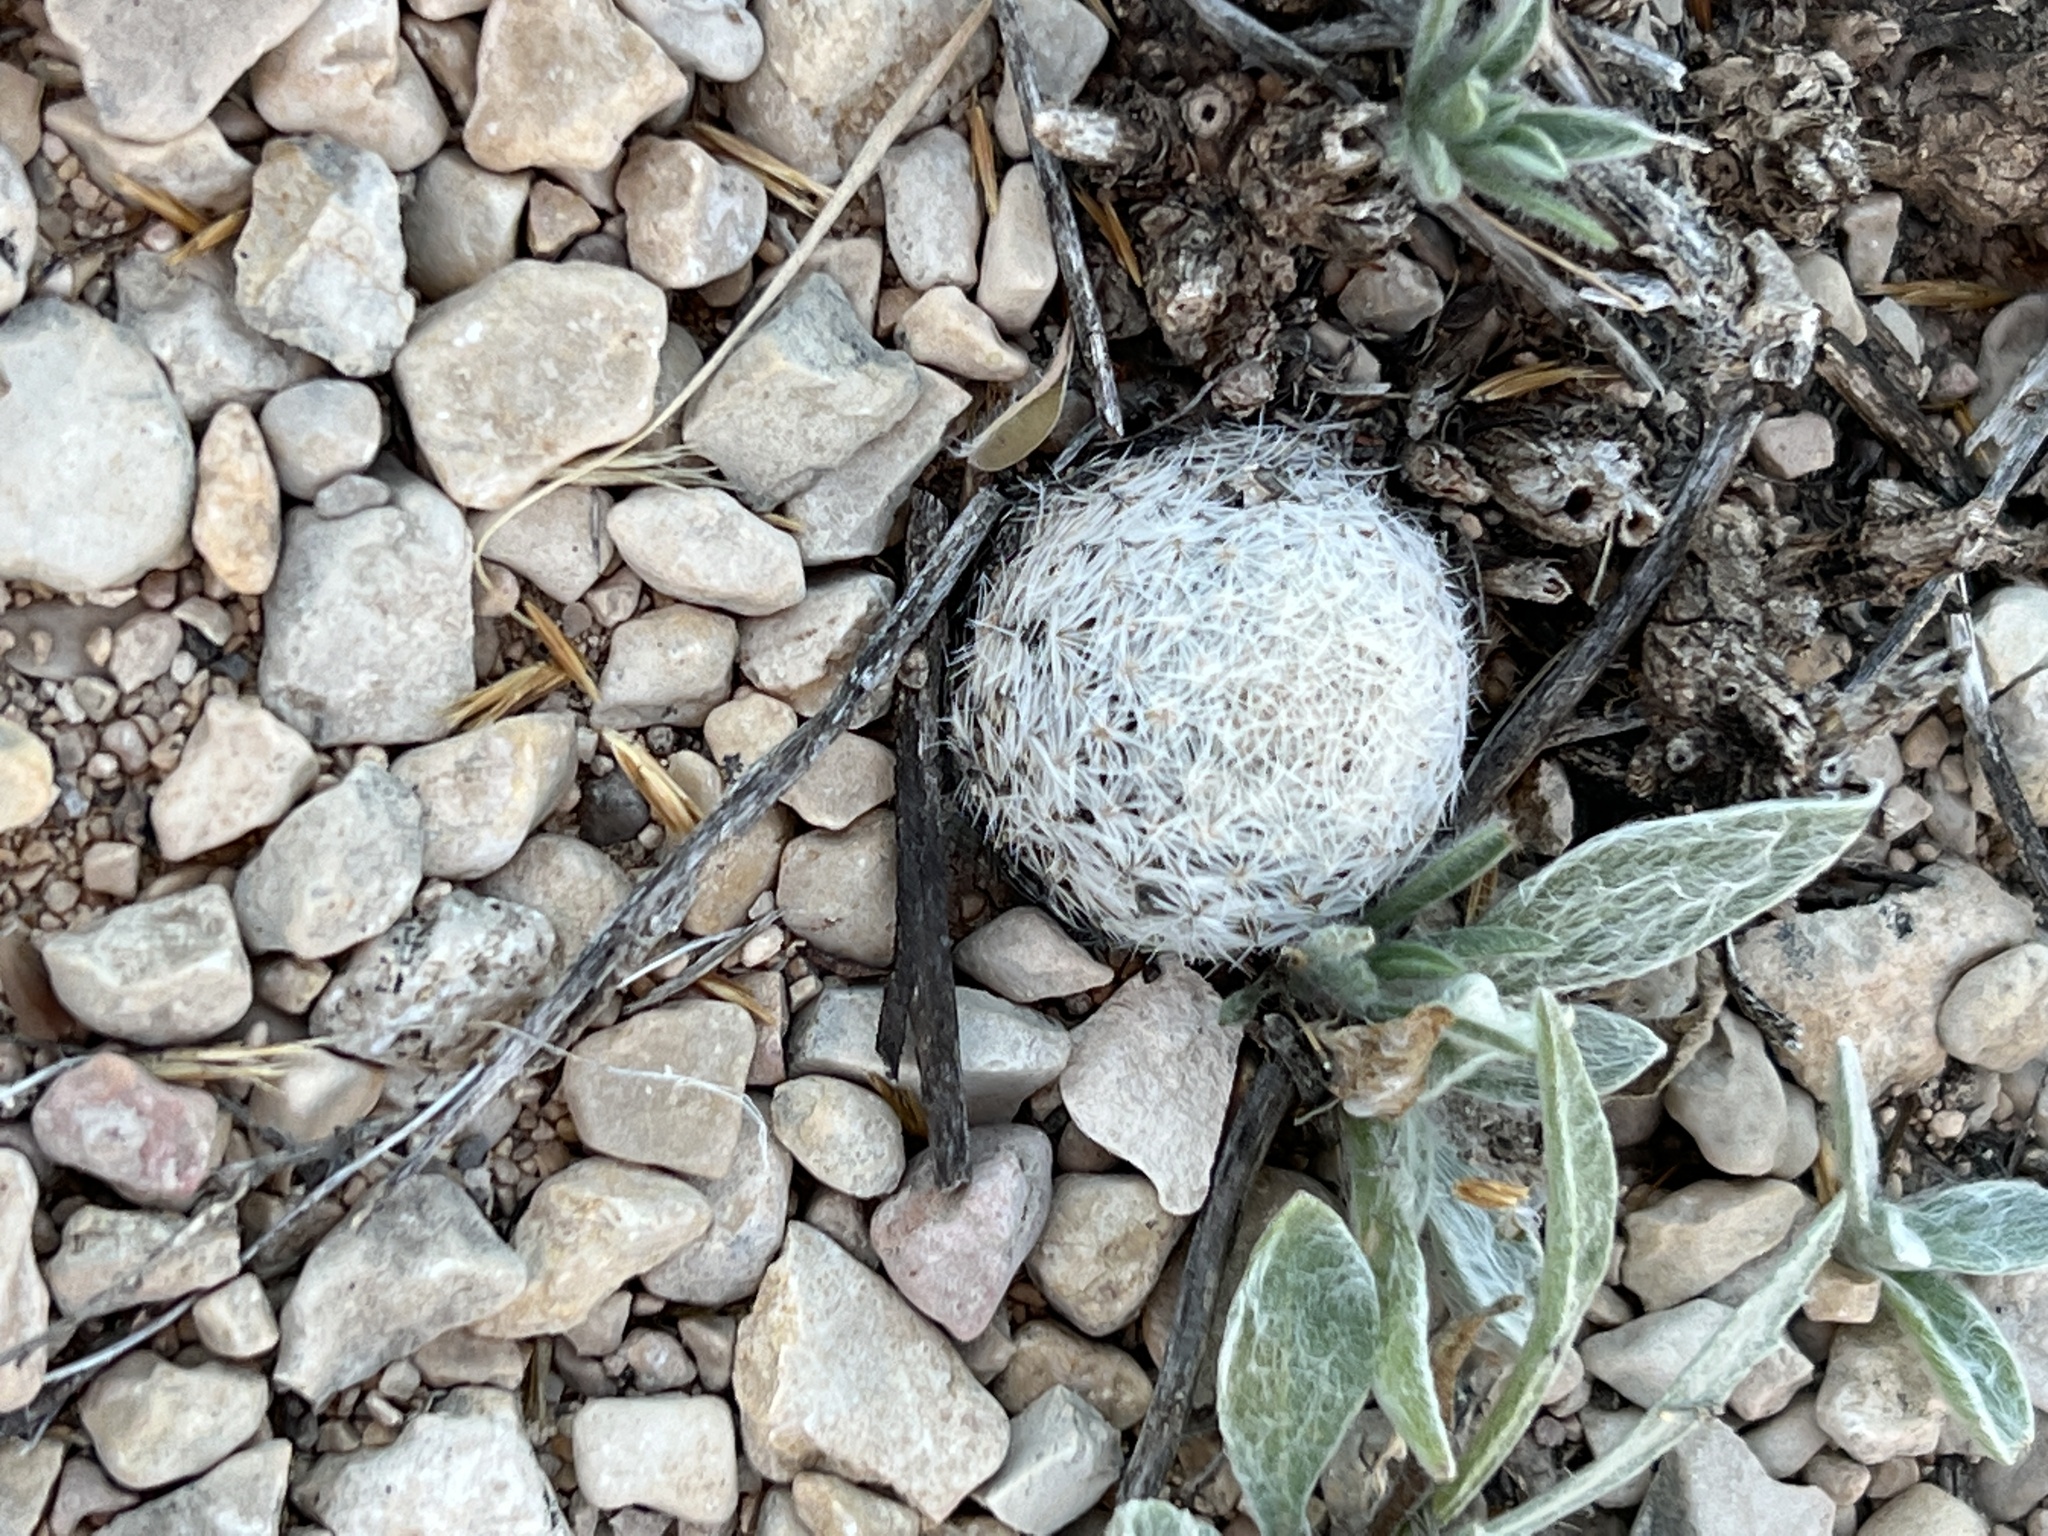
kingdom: Plantae
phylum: Tracheophyta
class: Magnoliopsida
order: Caryophyllales
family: Cactaceae
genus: Mammillaria
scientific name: Mammillaria lasiacantha
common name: Lace-spine nipple cactus
